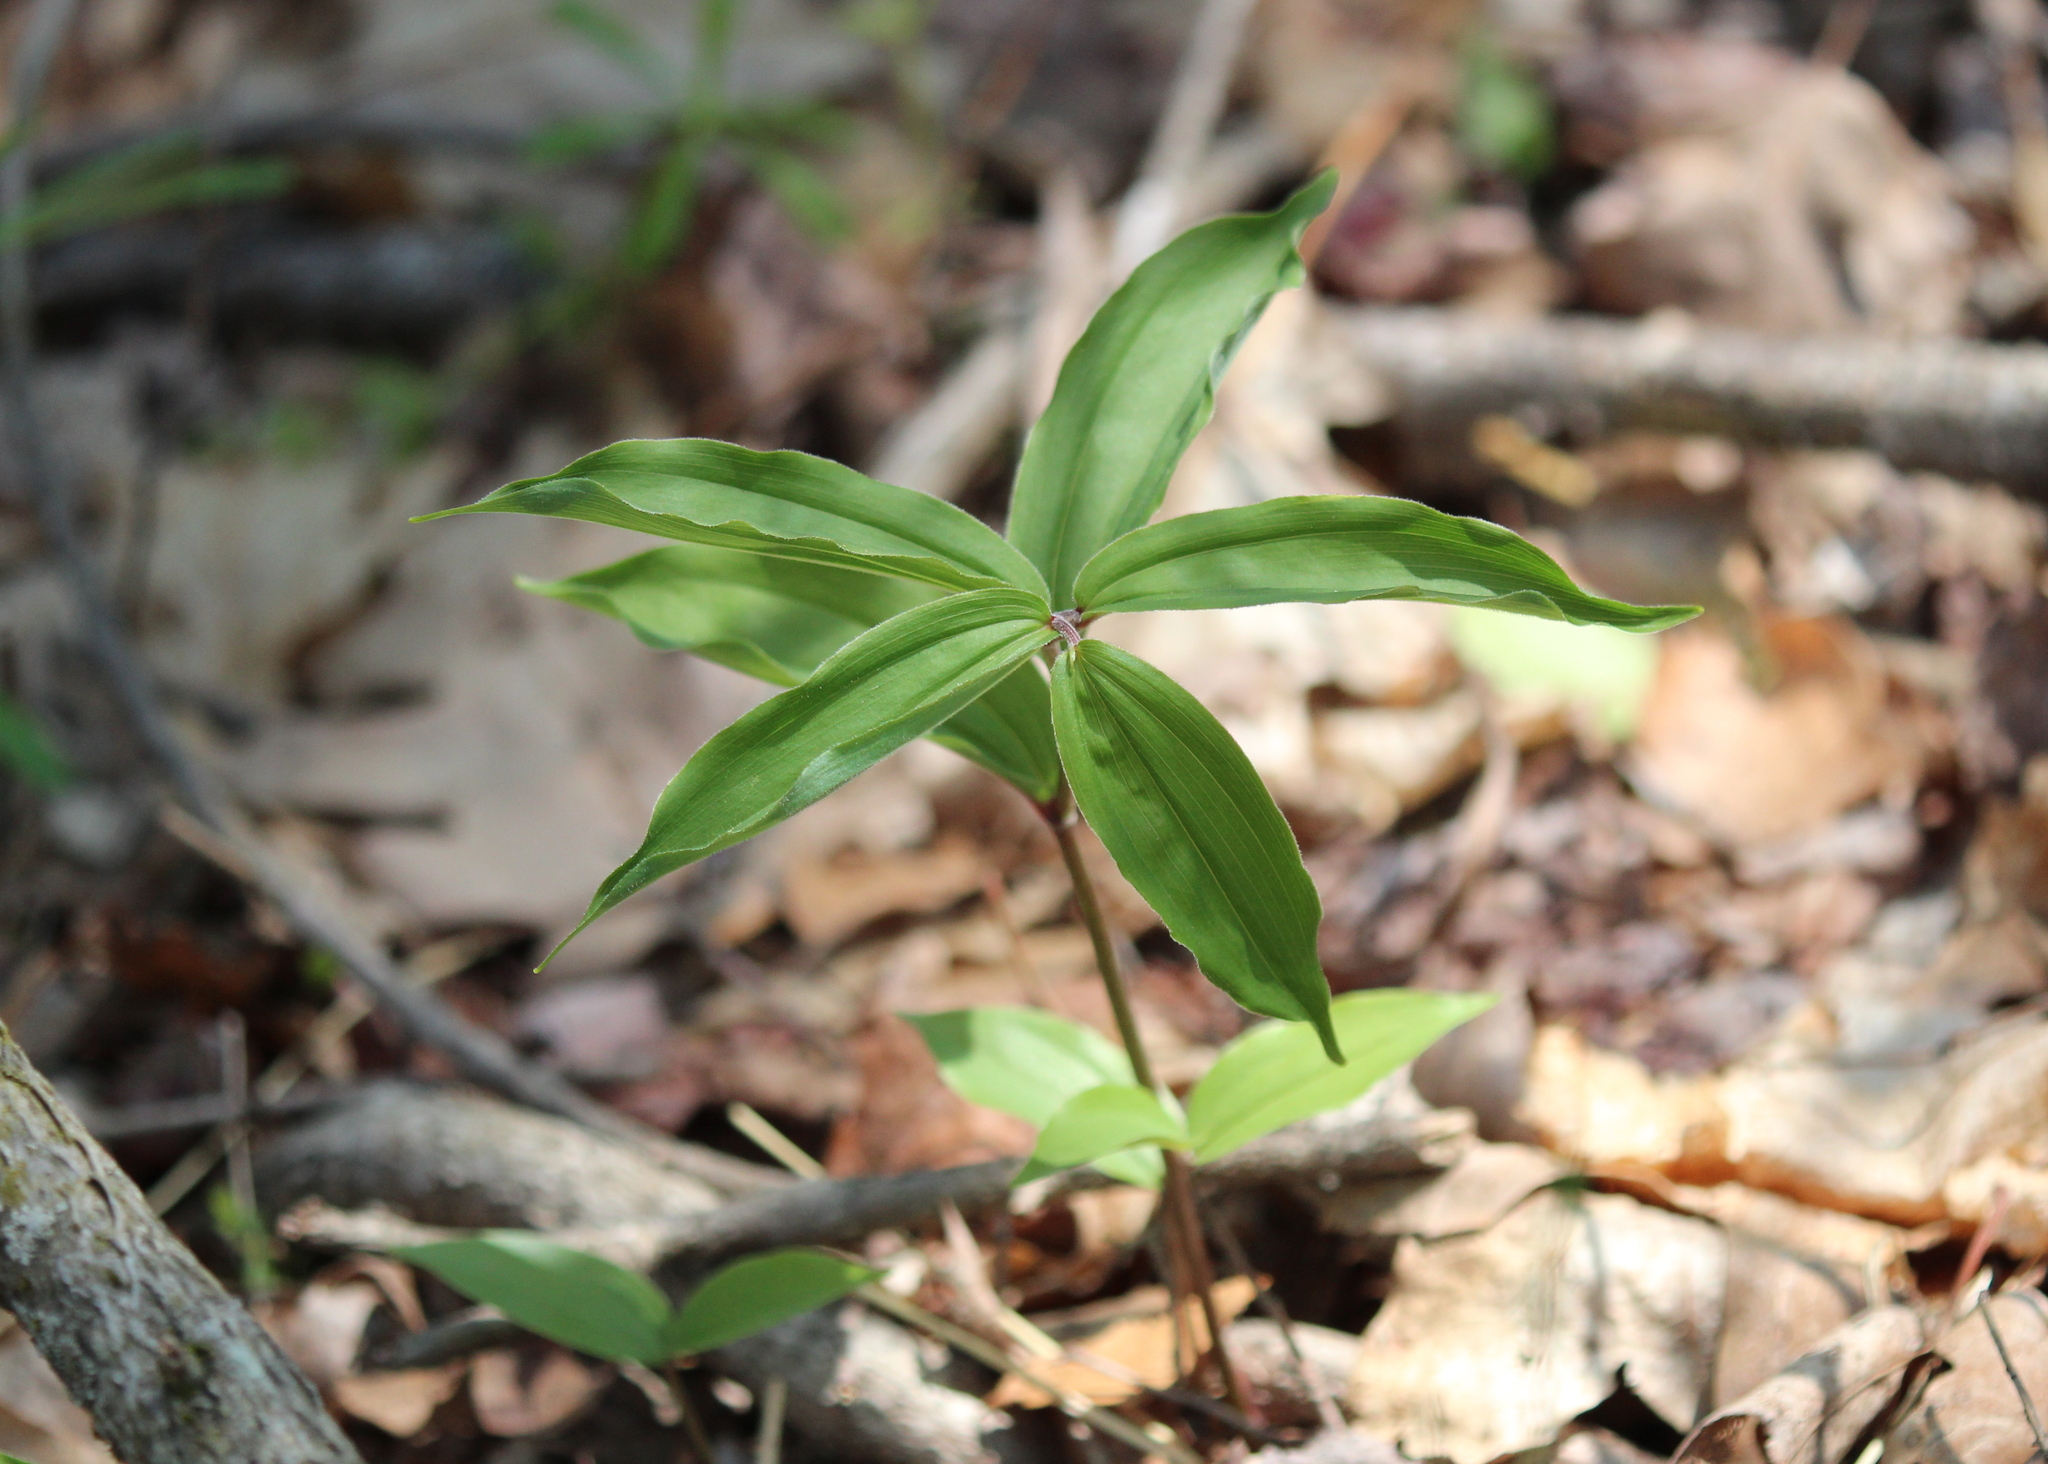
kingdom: Plantae
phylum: Tracheophyta
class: Liliopsida
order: Asparagales
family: Asparagaceae
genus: Maianthemum
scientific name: Maianthemum racemosum
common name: False spikenard
